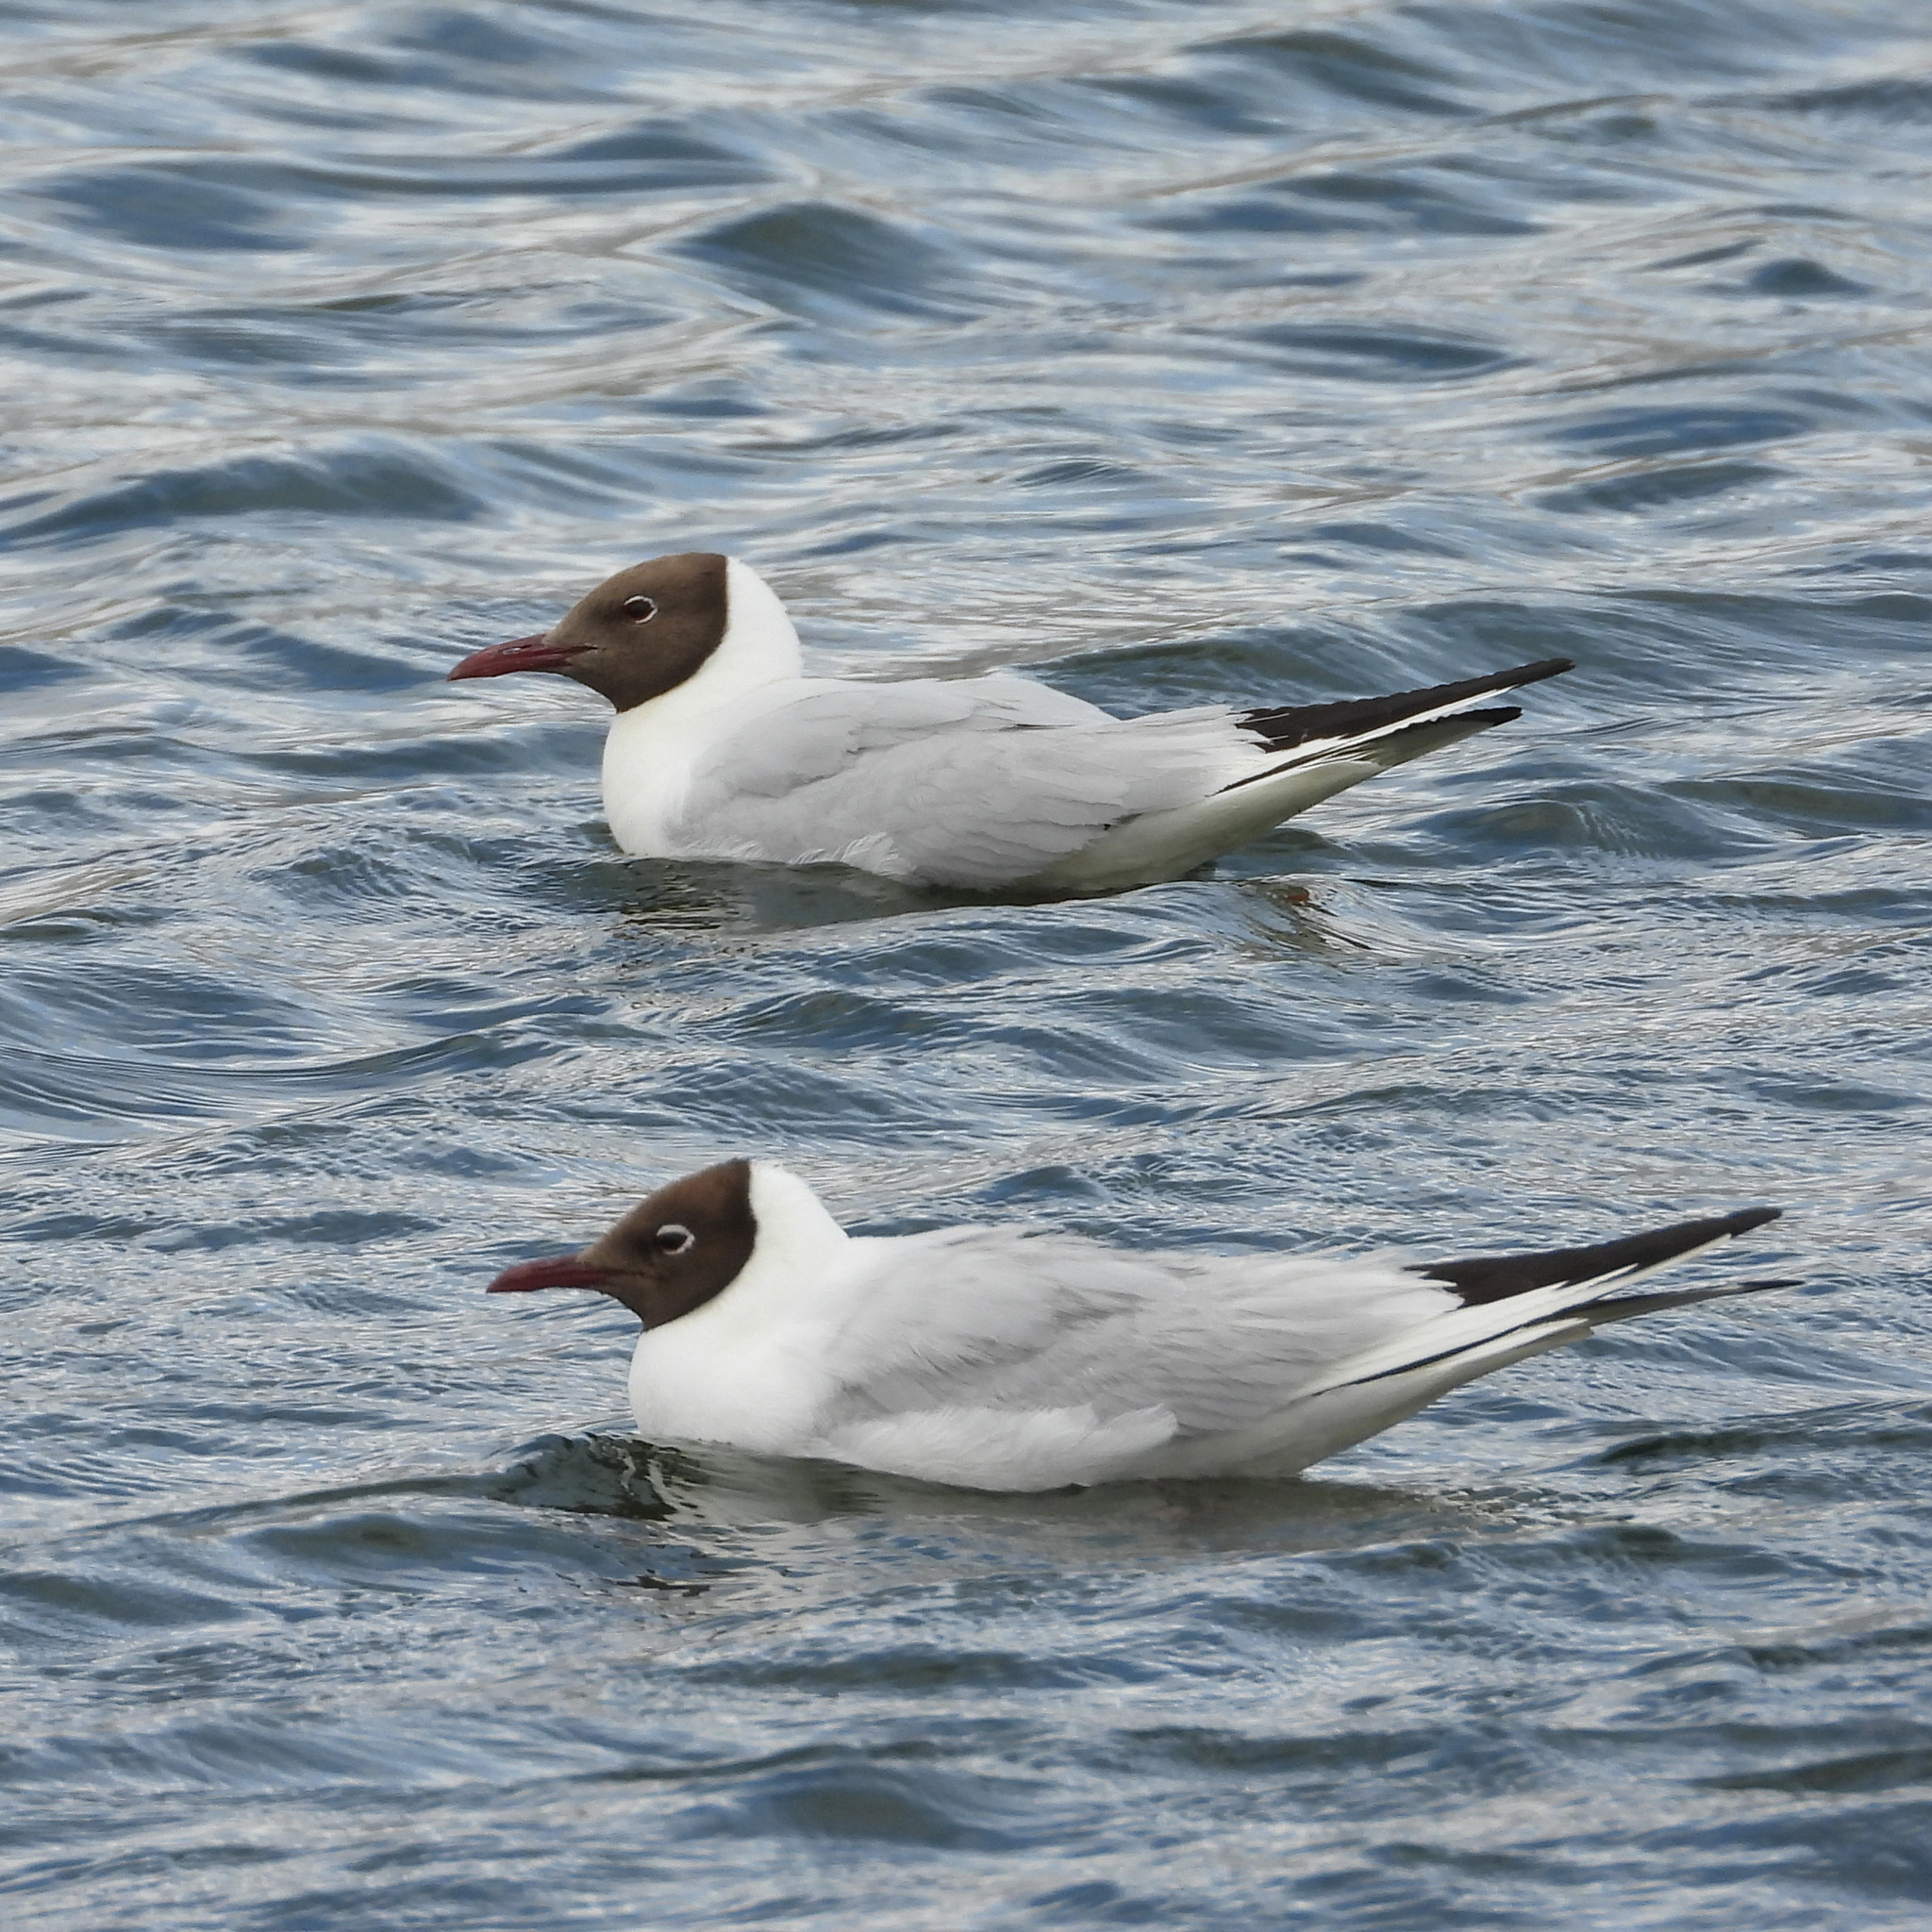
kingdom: Animalia
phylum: Chordata
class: Aves
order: Charadriiformes
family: Laridae
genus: Chroicocephalus
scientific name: Chroicocephalus ridibundus
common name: Black-headed gull
